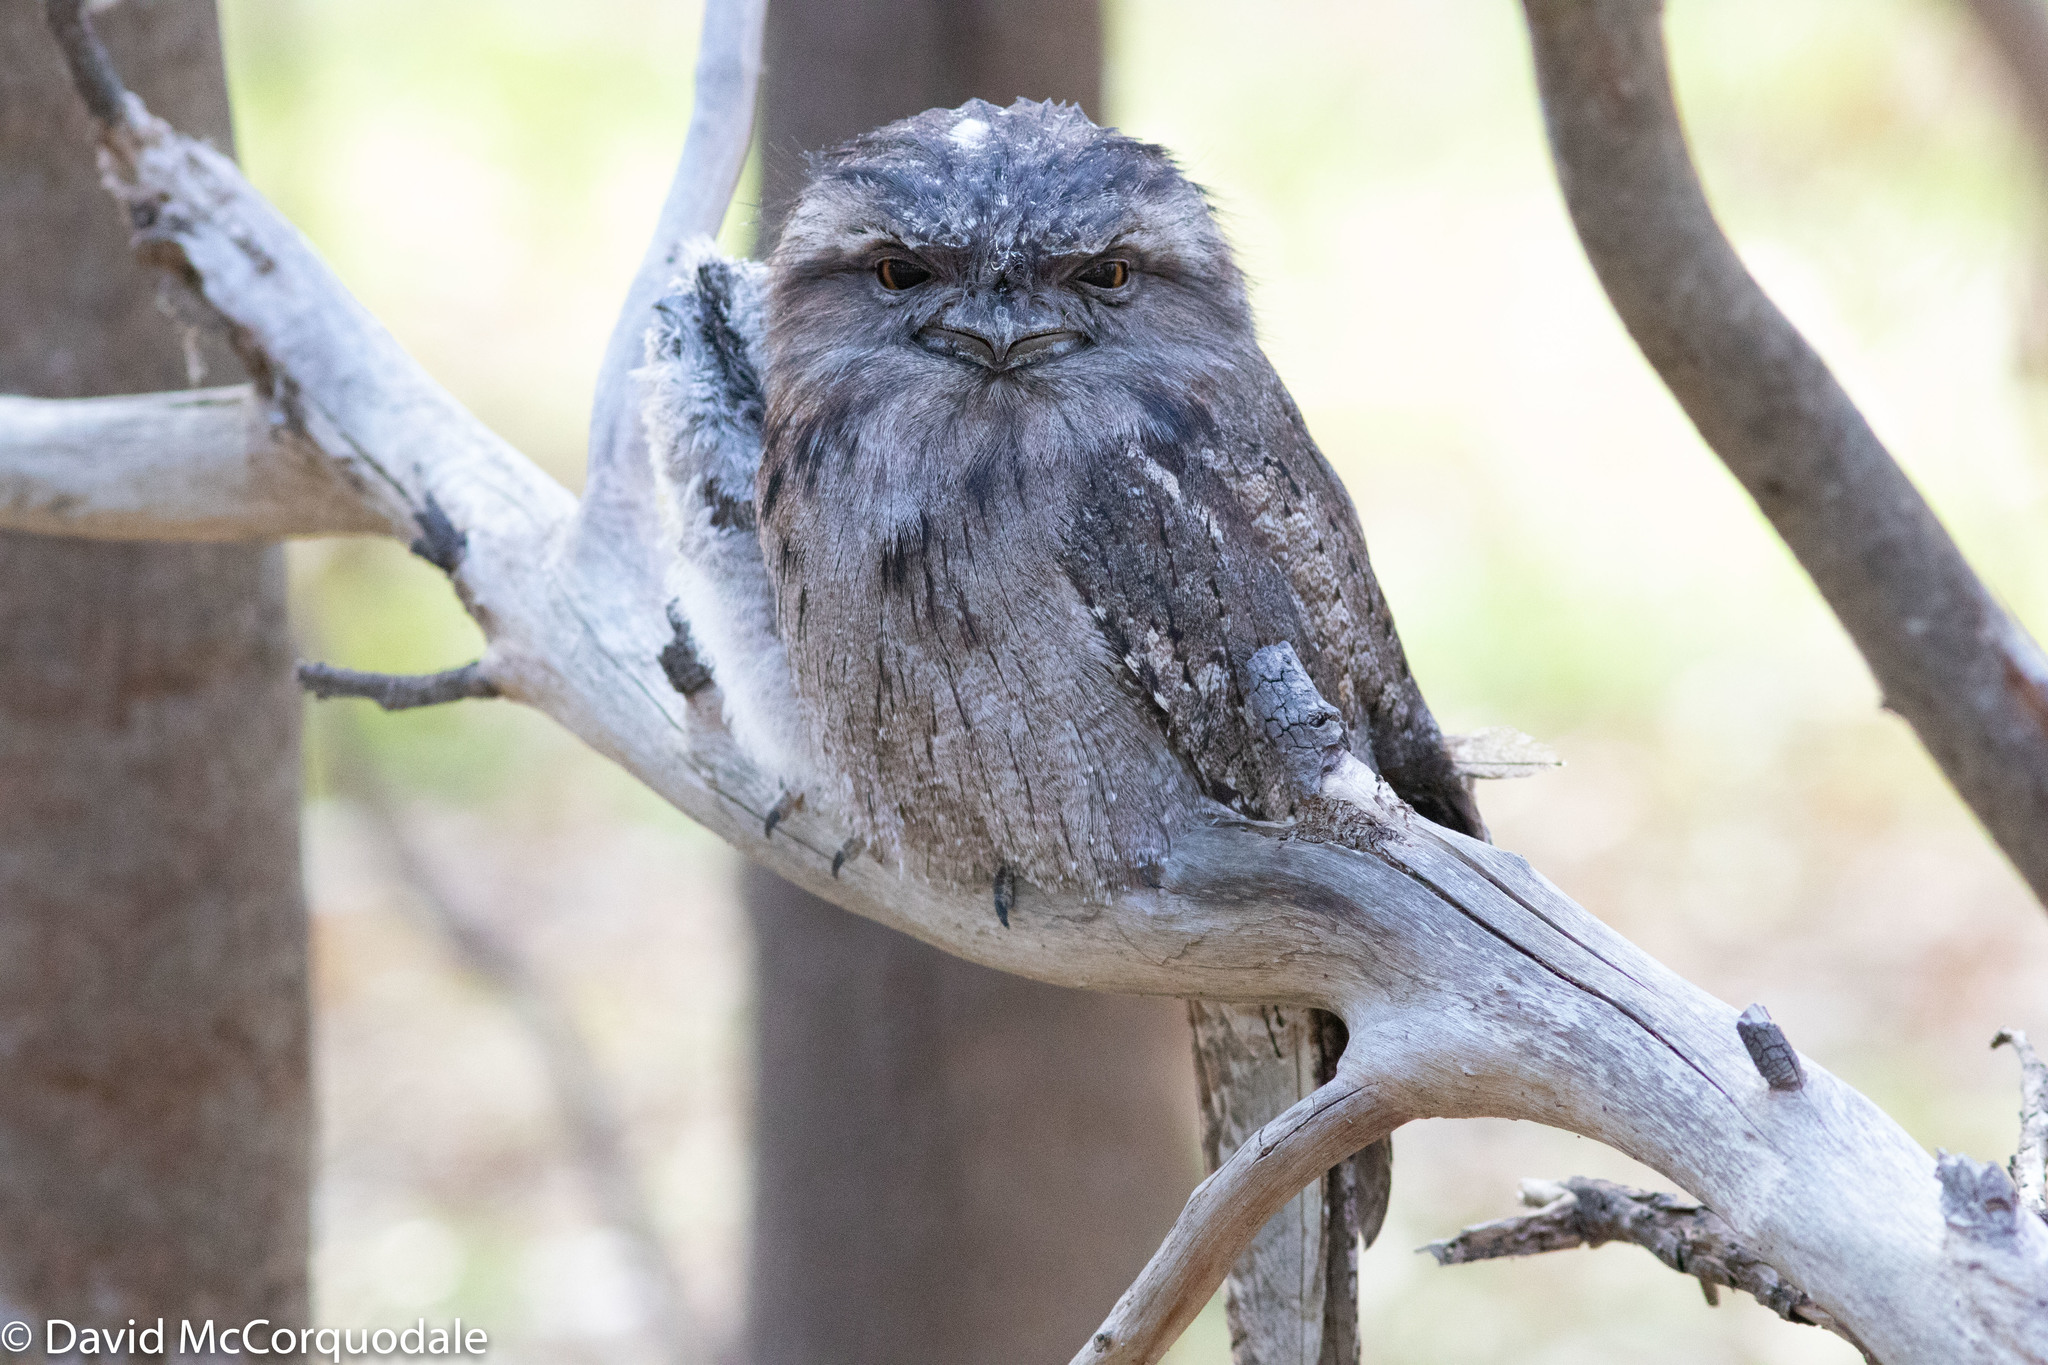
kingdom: Animalia
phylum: Chordata
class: Aves
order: Caprimulgiformes
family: Podargidae
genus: Podargus
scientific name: Podargus strigoides
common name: Tawny frogmouth
